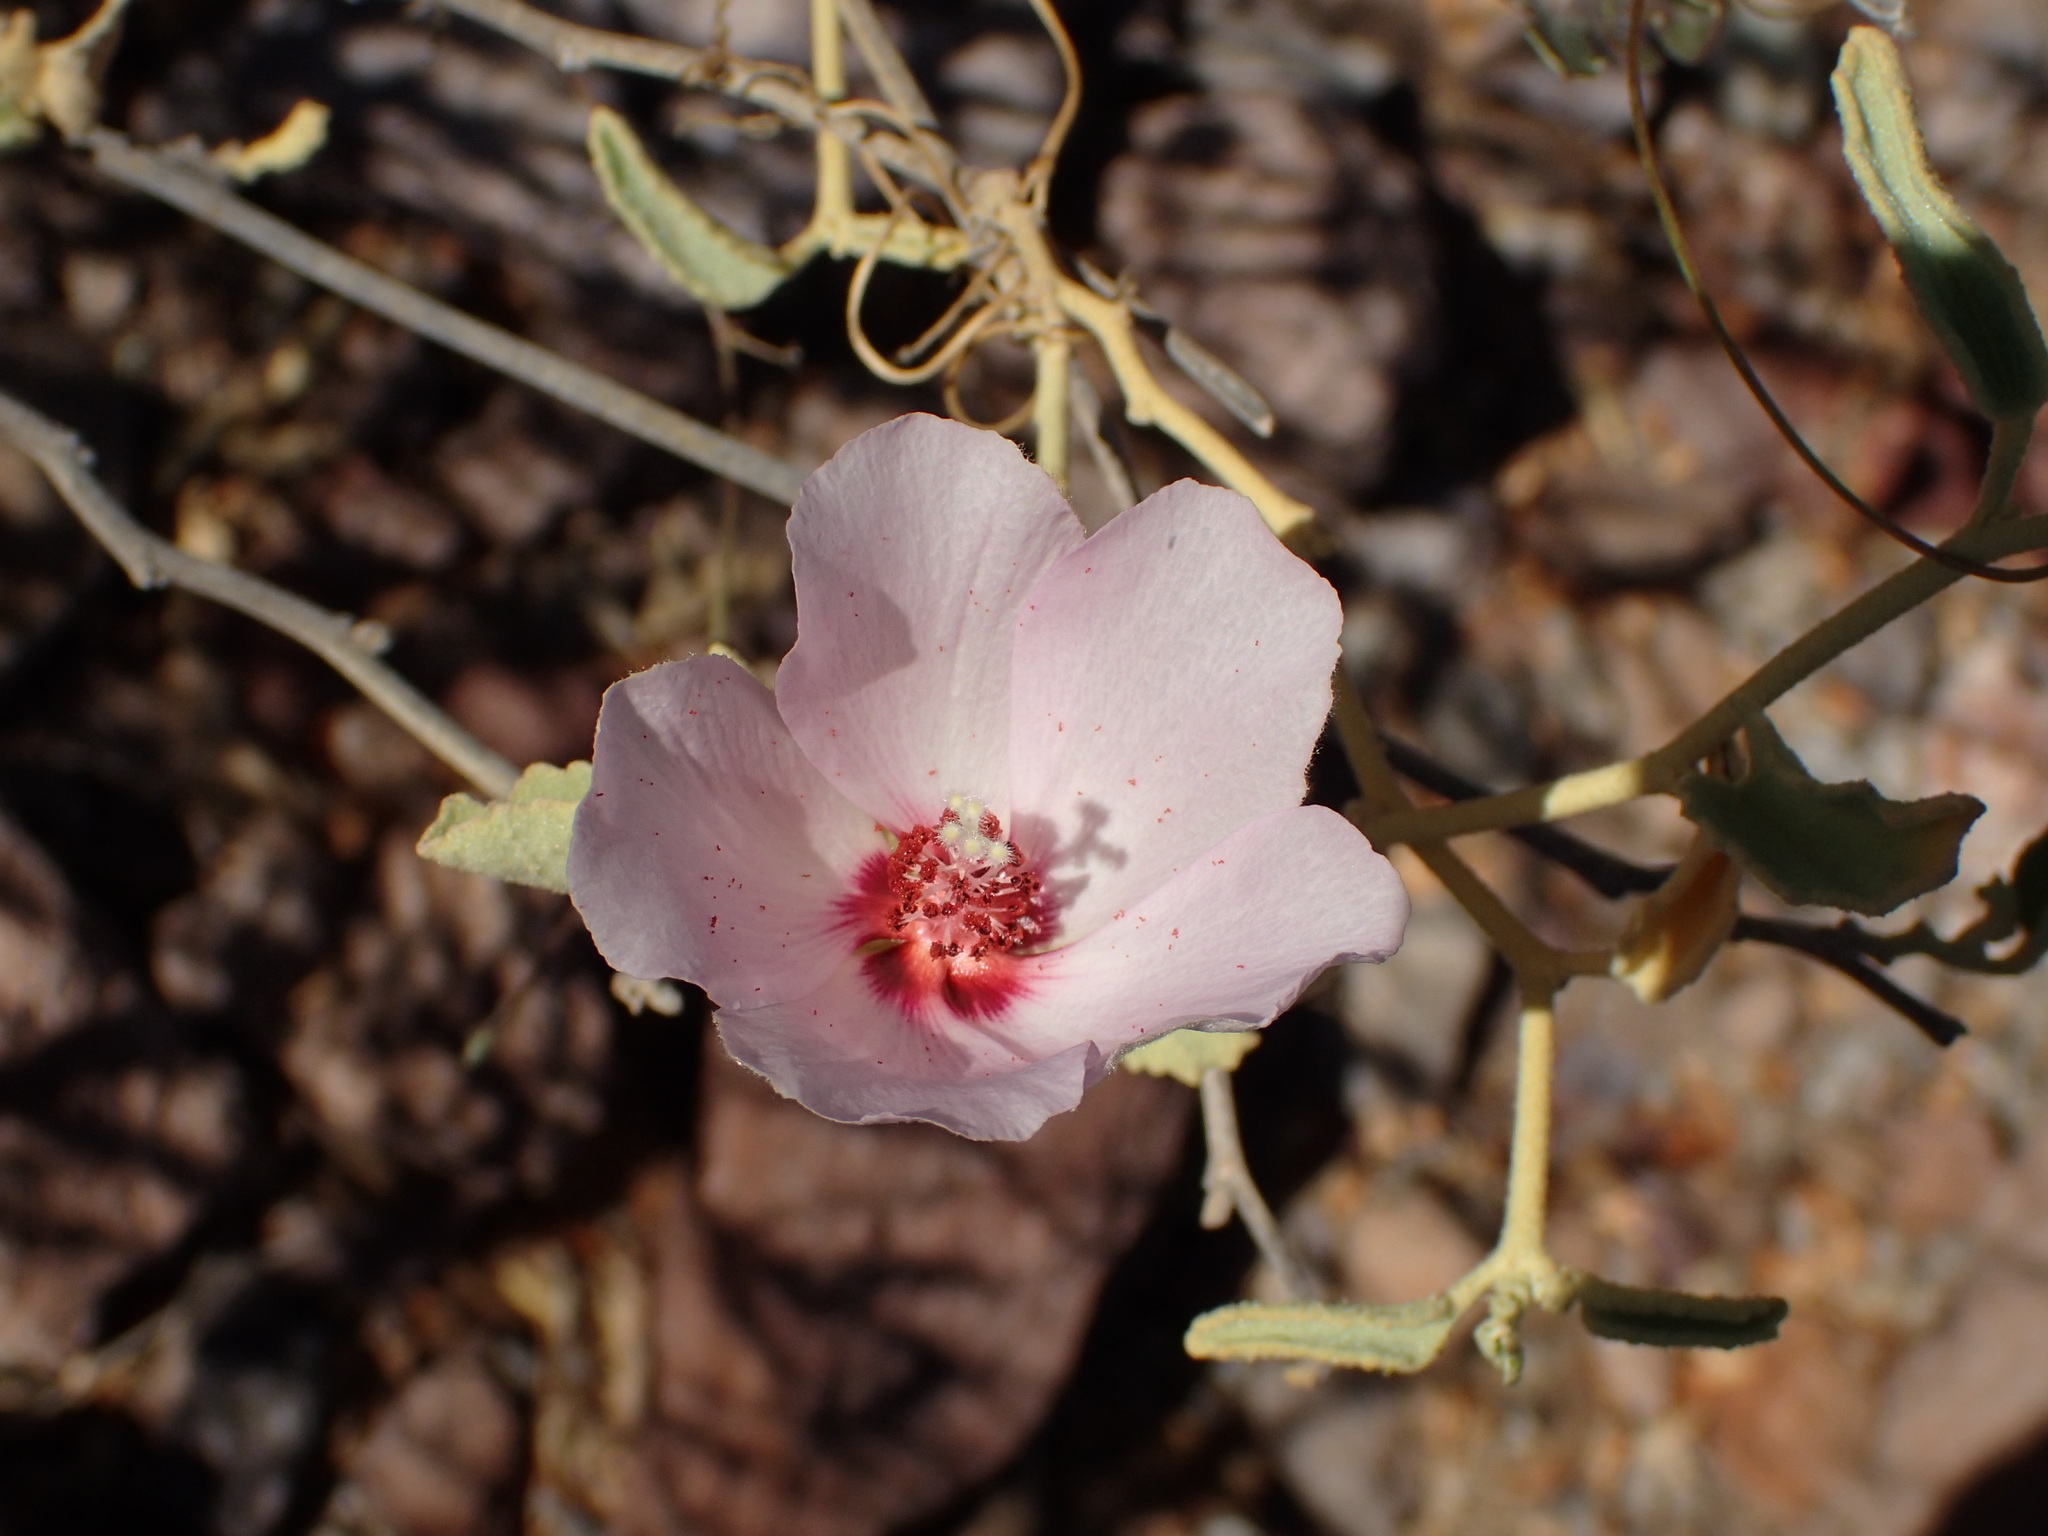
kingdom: Plantae
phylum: Tracheophyta
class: Magnoliopsida
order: Malvales
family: Malvaceae
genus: Hibiscus
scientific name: Hibiscus denudatus
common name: Paleface
